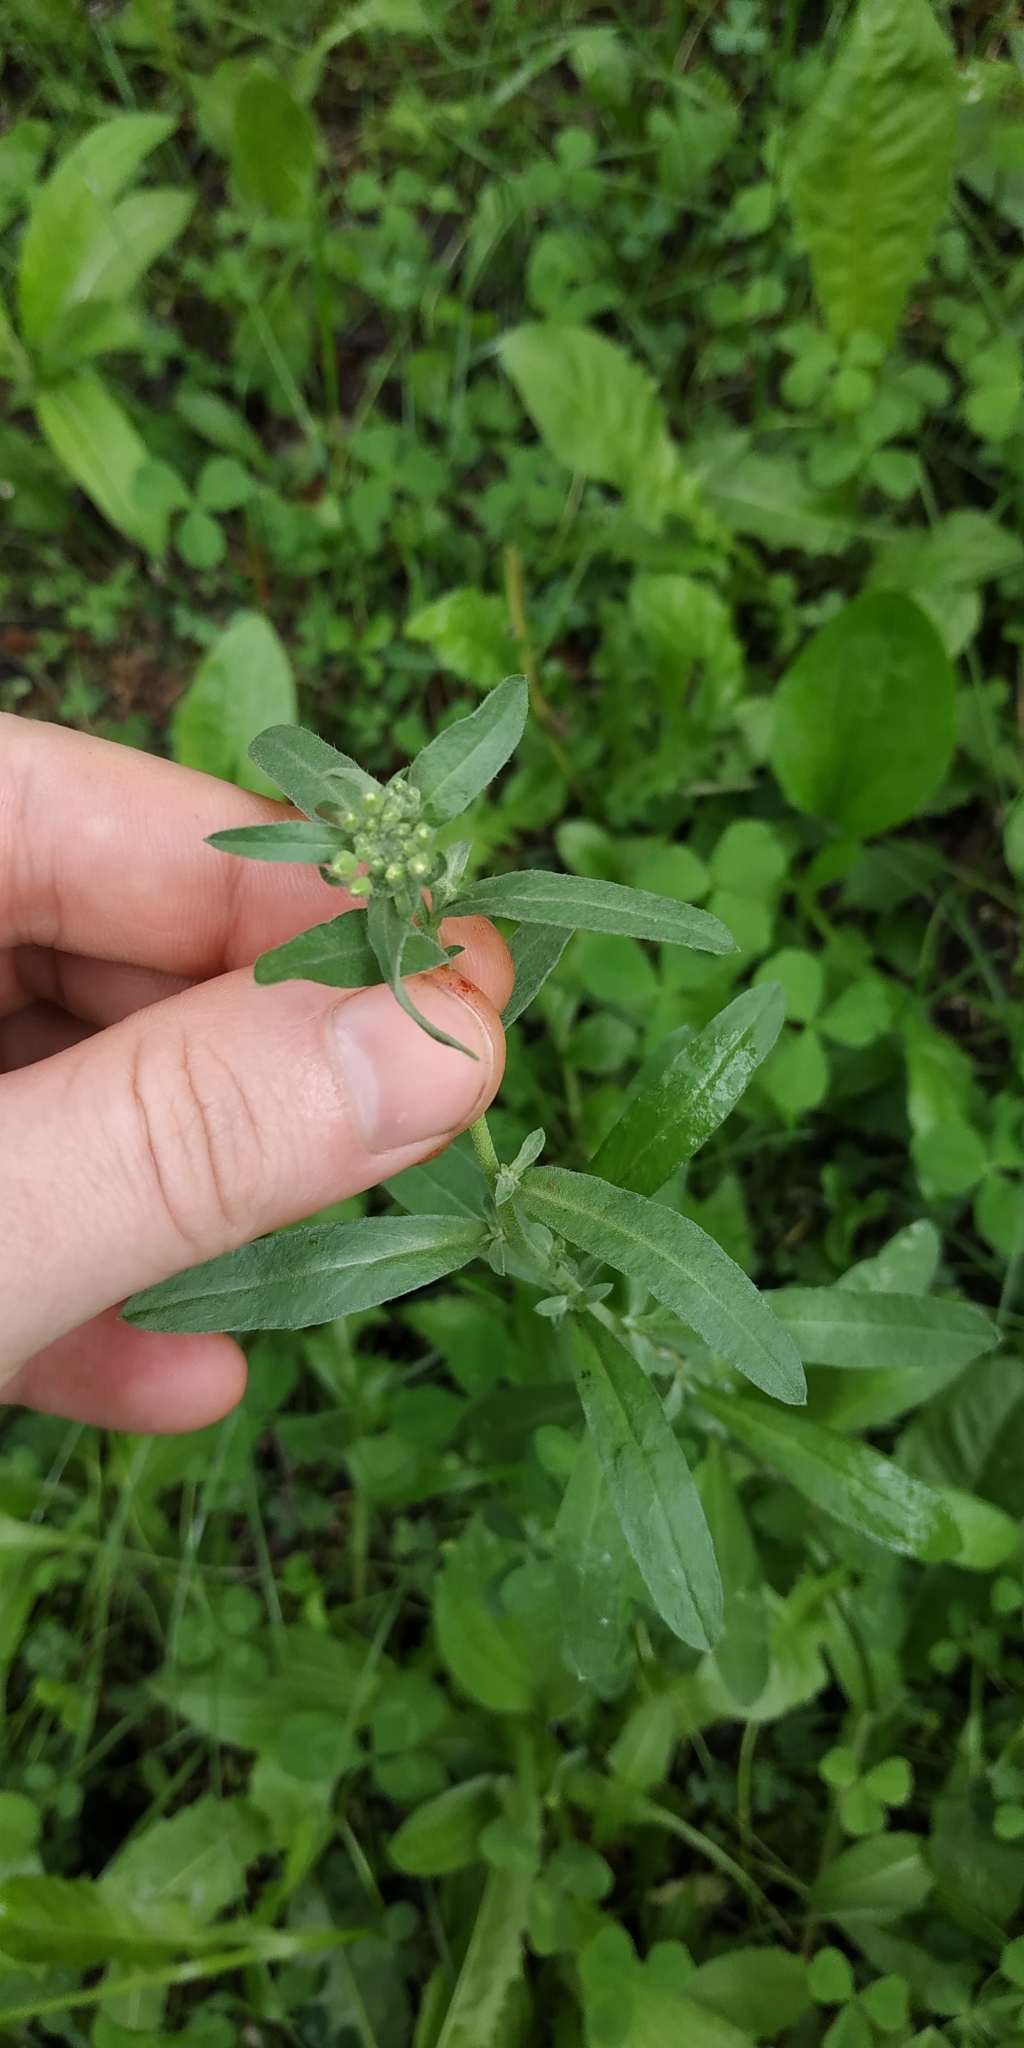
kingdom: Plantae
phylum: Tracheophyta
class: Magnoliopsida
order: Brassicales
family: Brassicaceae
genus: Berteroa
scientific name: Berteroa incana
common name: Hoary alison
